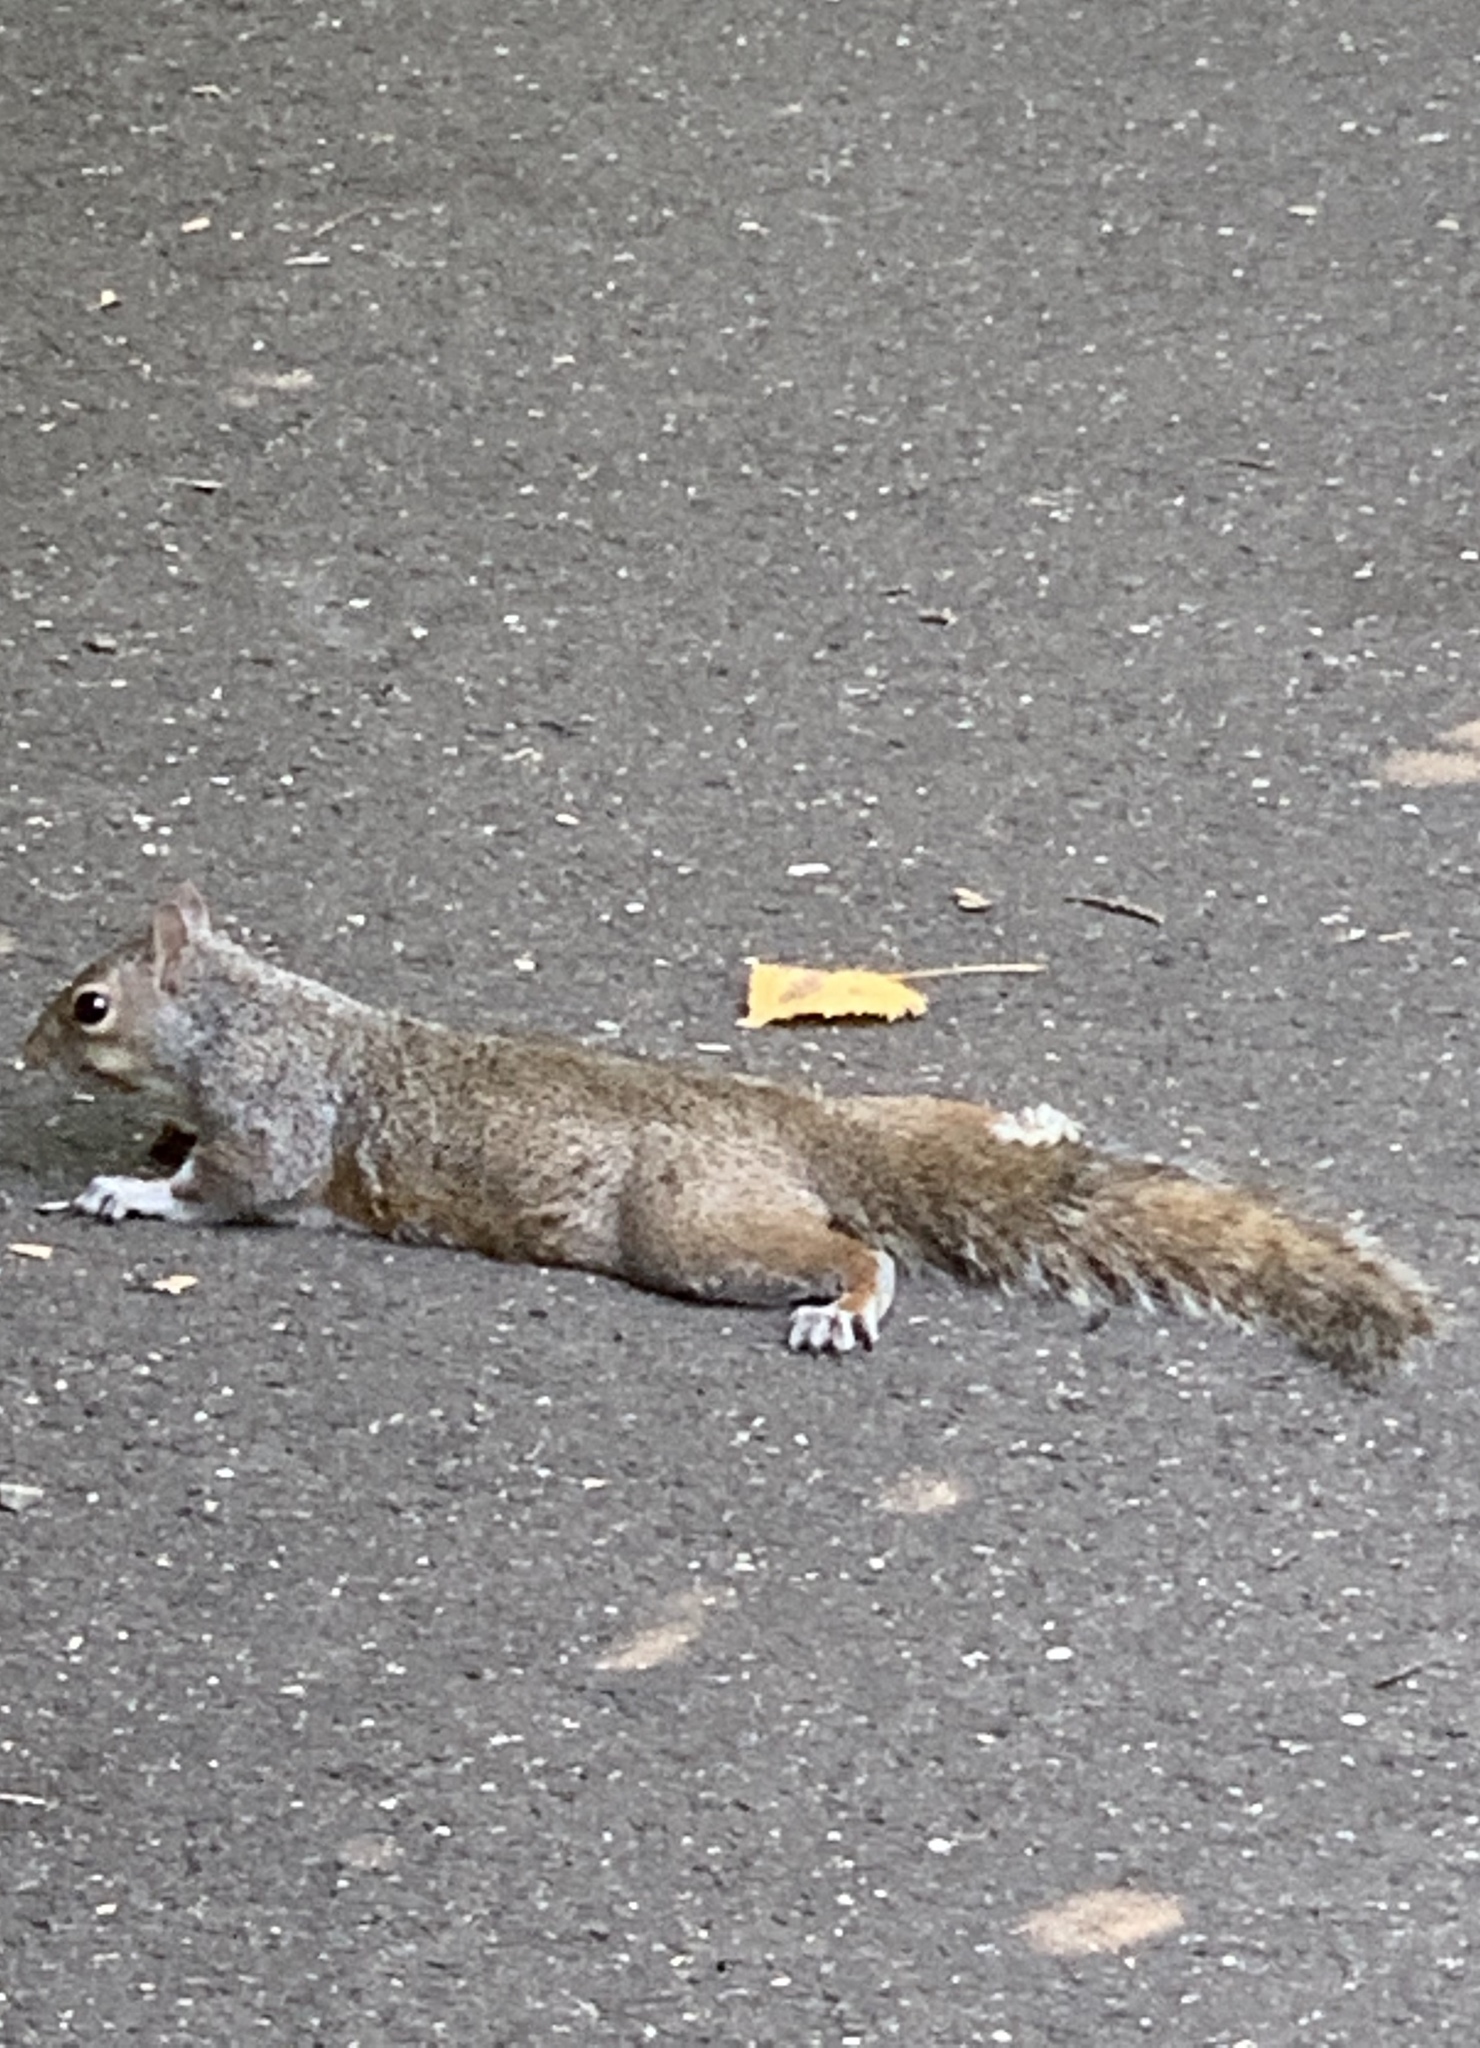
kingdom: Animalia
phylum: Chordata
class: Mammalia
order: Rodentia
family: Sciuridae
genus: Sciurus
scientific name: Sciurus carolinensis
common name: Eastern gray squirrel
